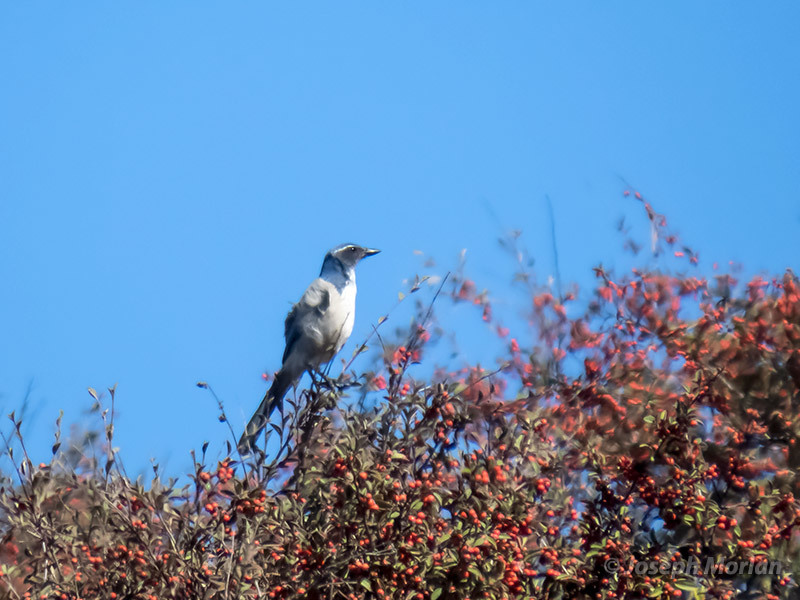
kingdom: Animalia
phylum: Chordata
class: Aves
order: Passeriformes
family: Corvidae
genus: Aphelocoma
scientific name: Aphelocoma californica
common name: California scrub-jay
